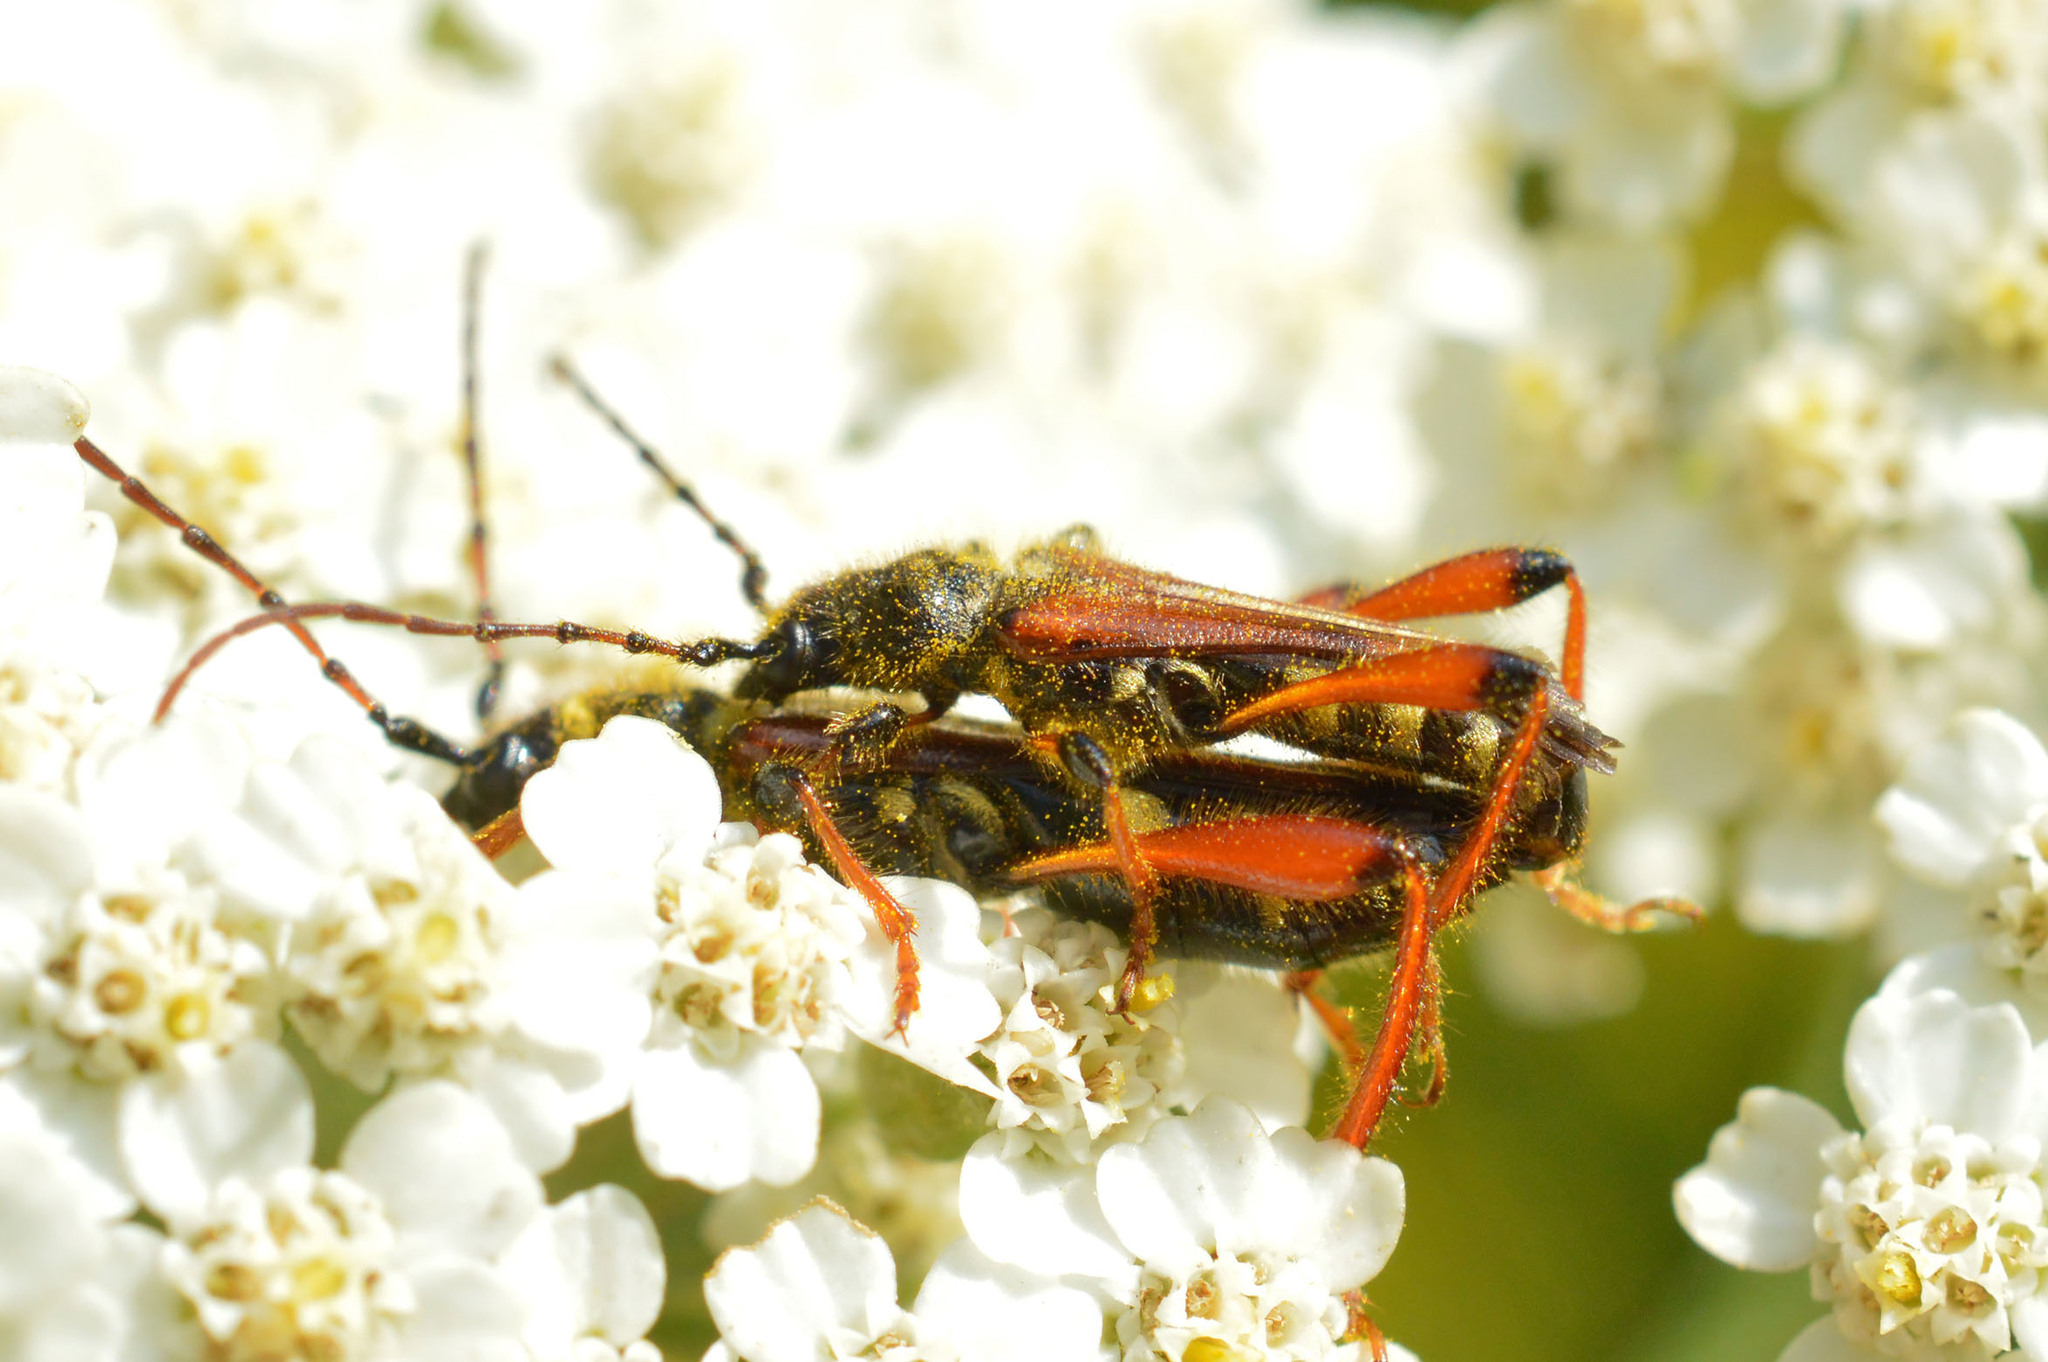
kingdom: Animalia
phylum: Arthropoda
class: Insecta
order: Coleoptera
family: Cerambycidae
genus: Stenopterus
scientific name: Stenopterus rufus
